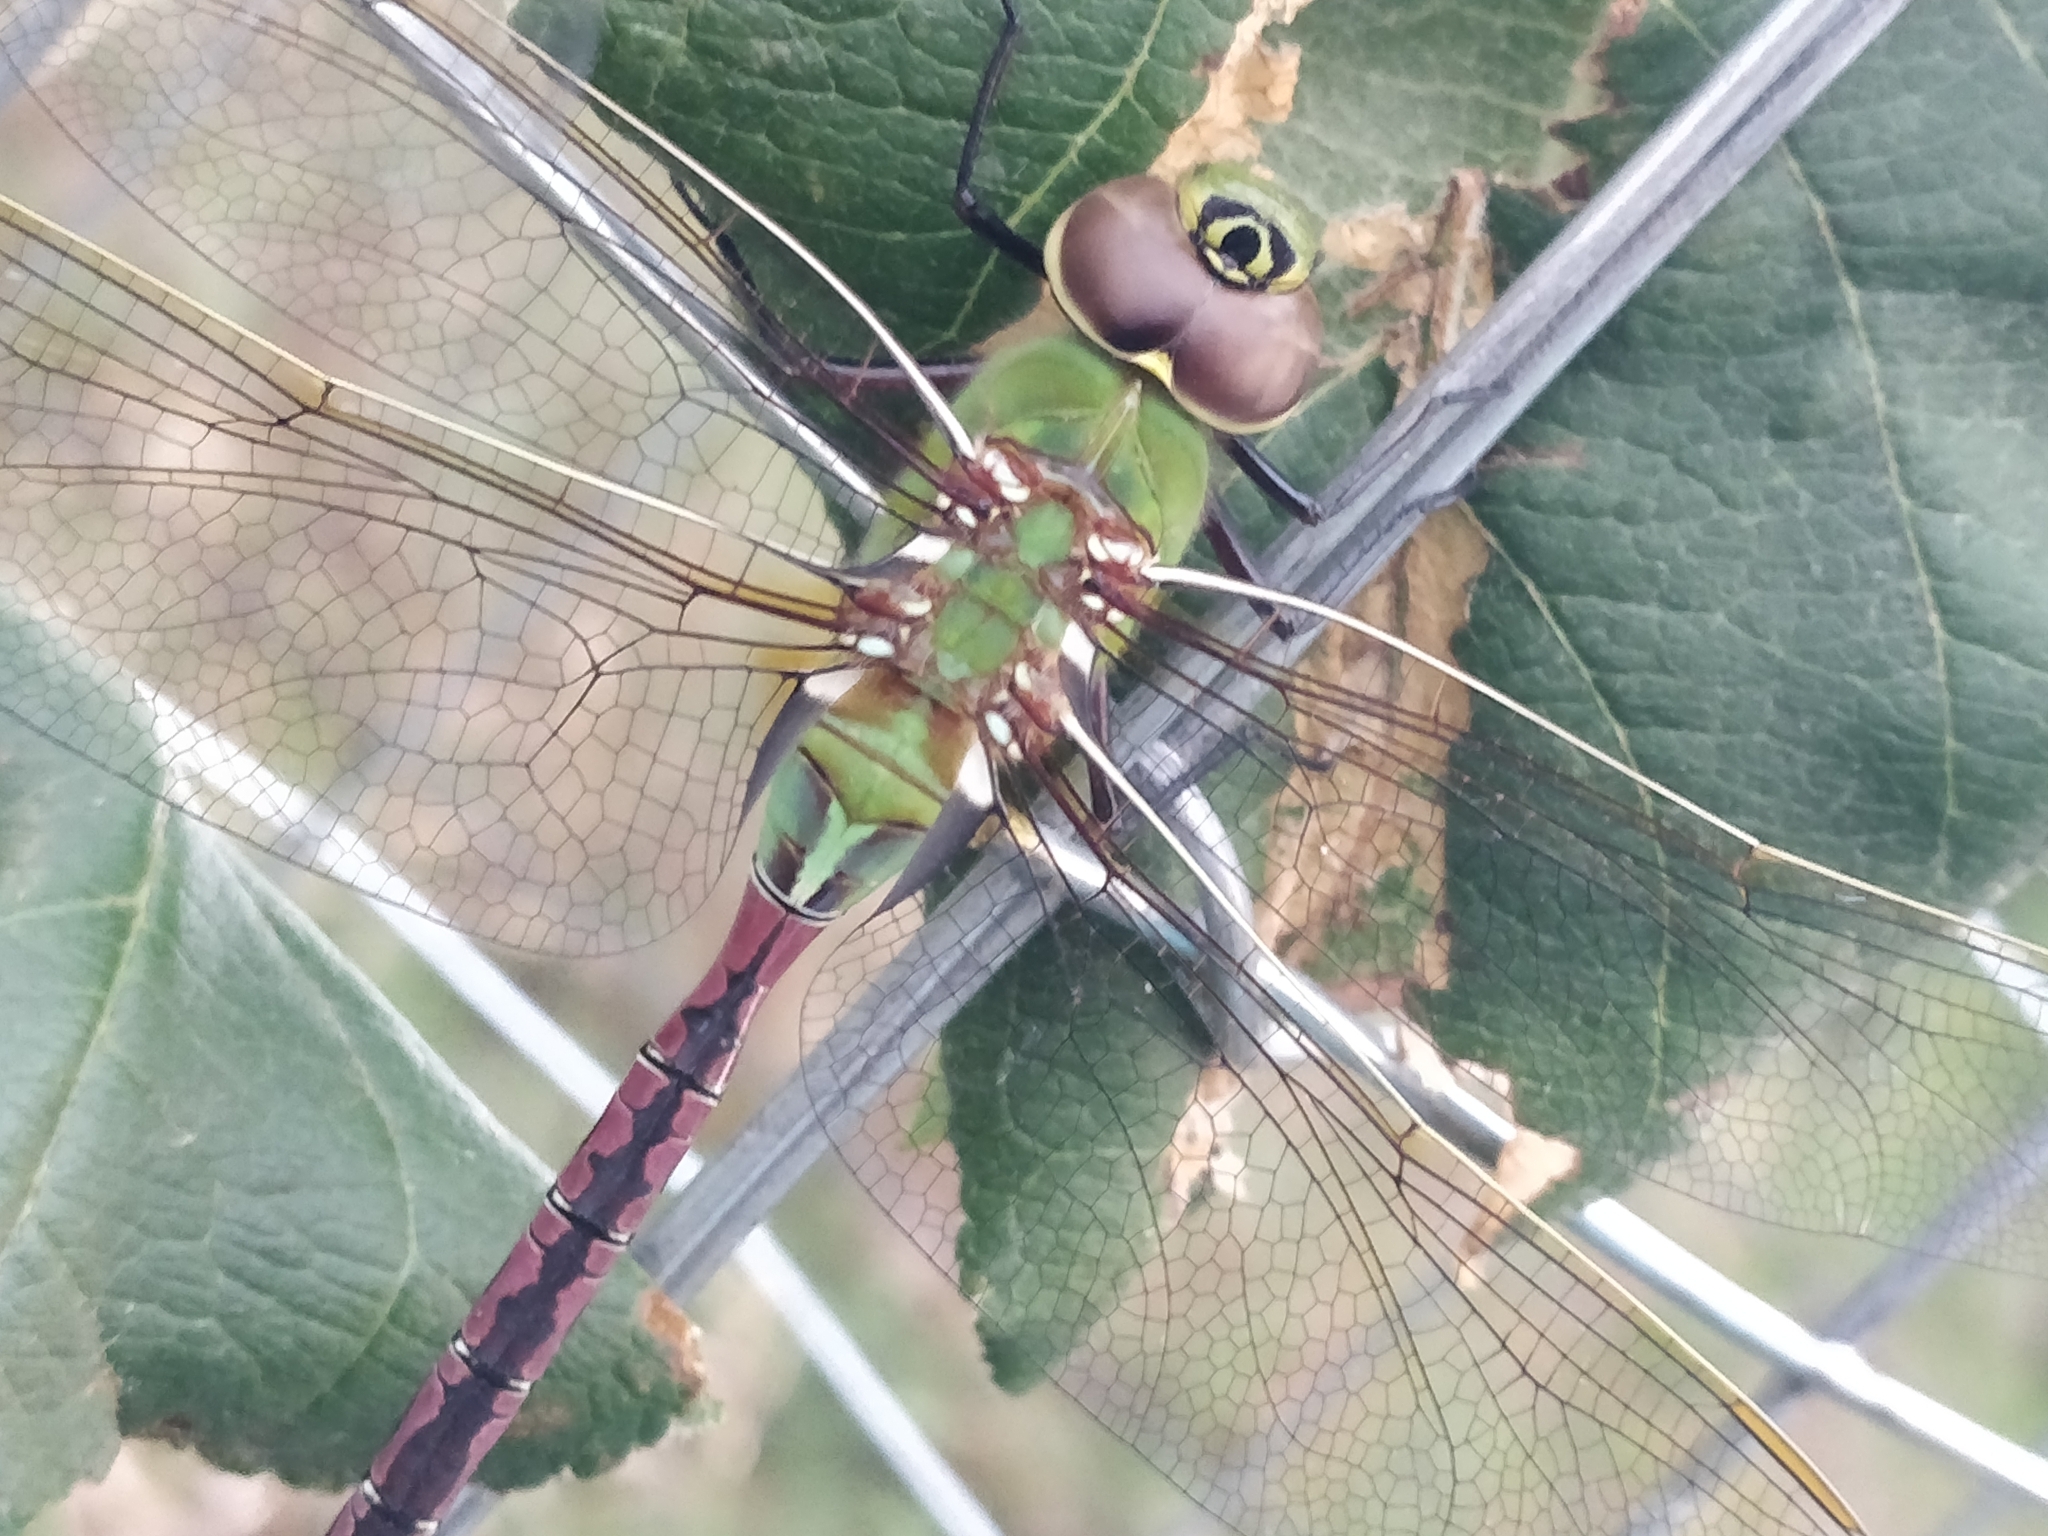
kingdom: Animalia
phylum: Arthropoda
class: Insecta
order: Odonata
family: Aeshnidae
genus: Anax
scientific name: Anax junius
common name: Common green darner
